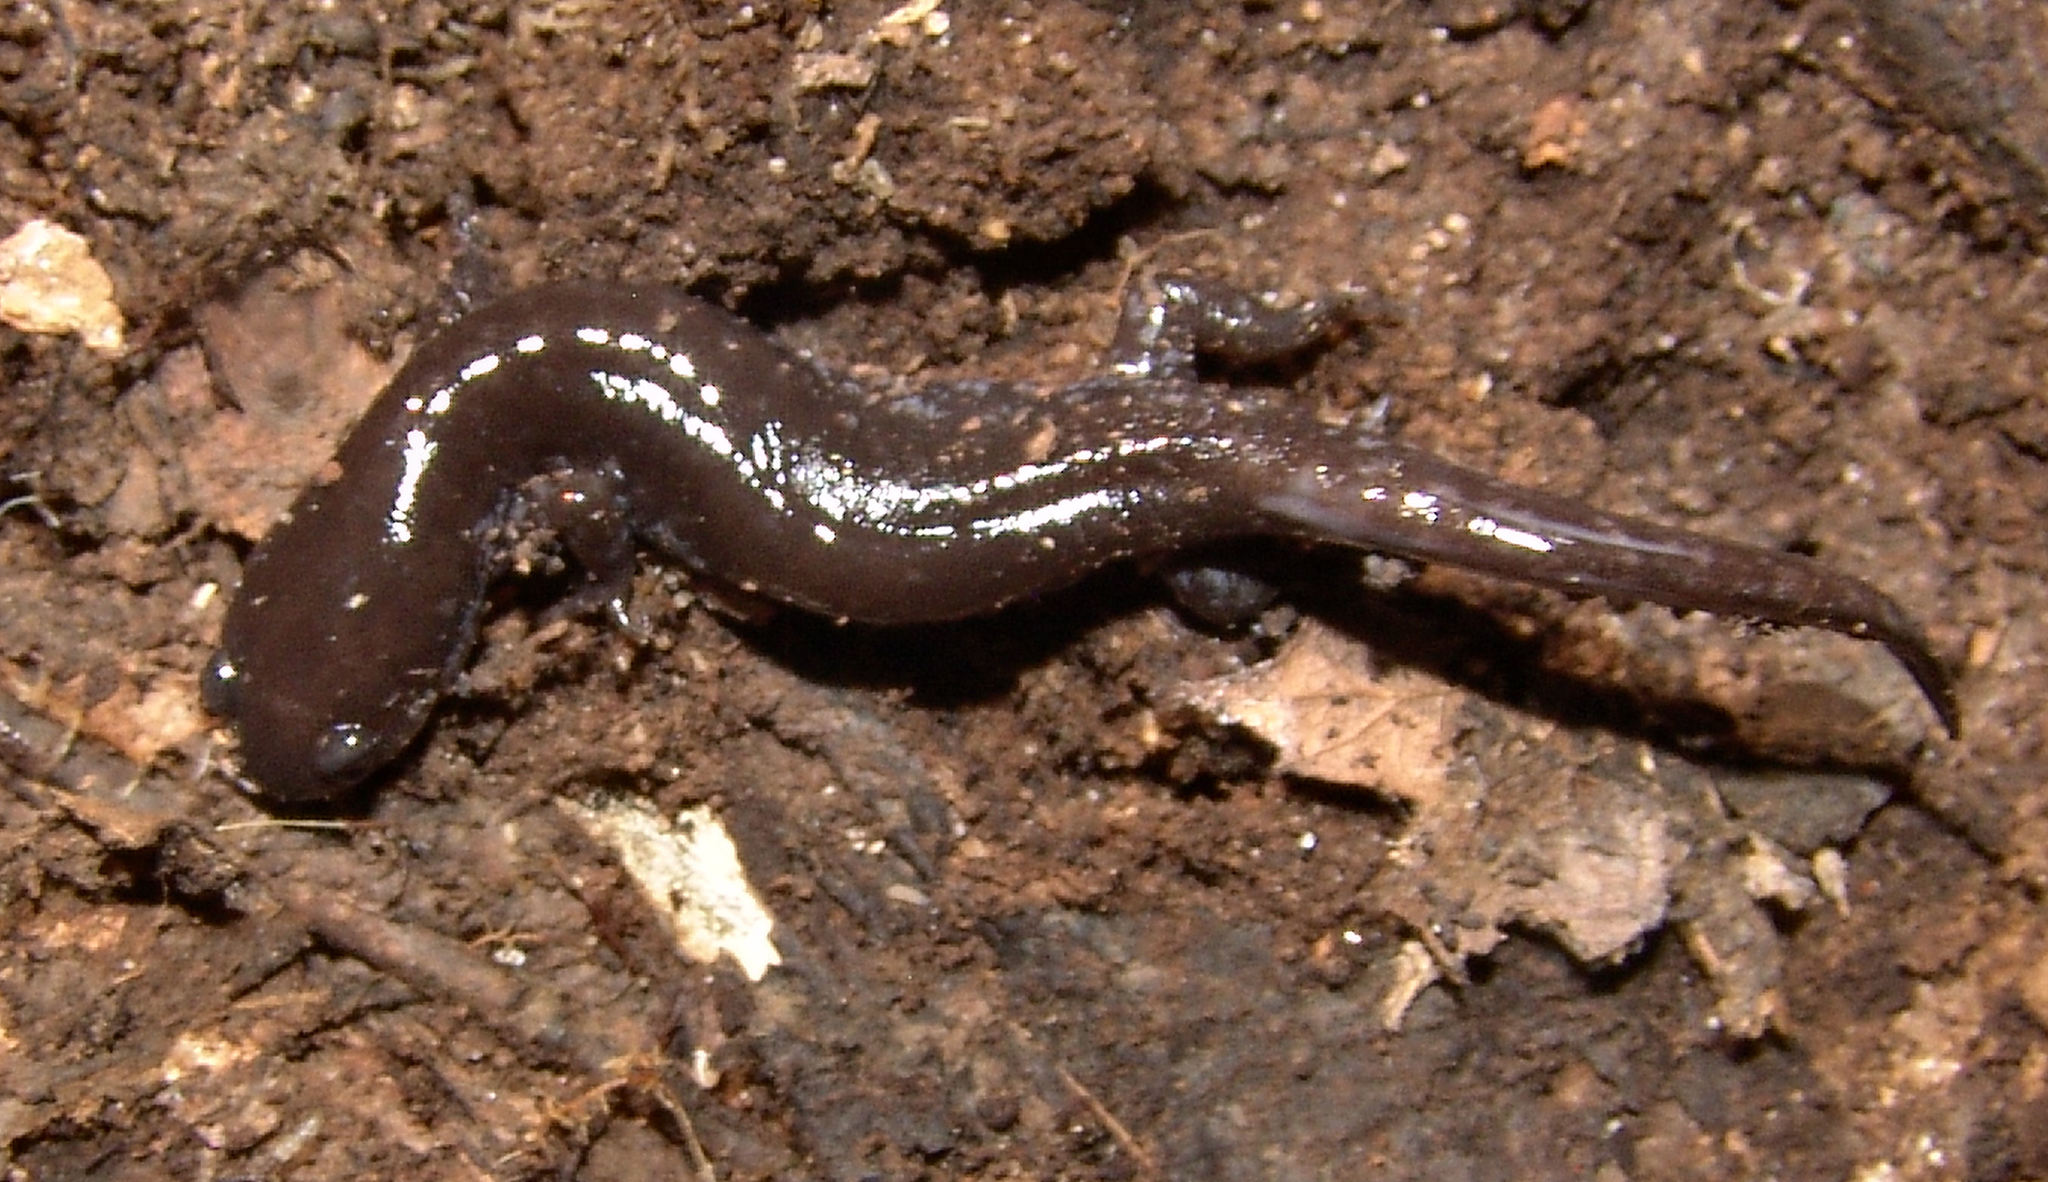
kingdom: Animalia
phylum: Chordata
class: Amphibia
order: Caudata
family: Ambystomatidae
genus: Ambystoma
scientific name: Ambystoma texanum
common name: Small-mouth salamander
